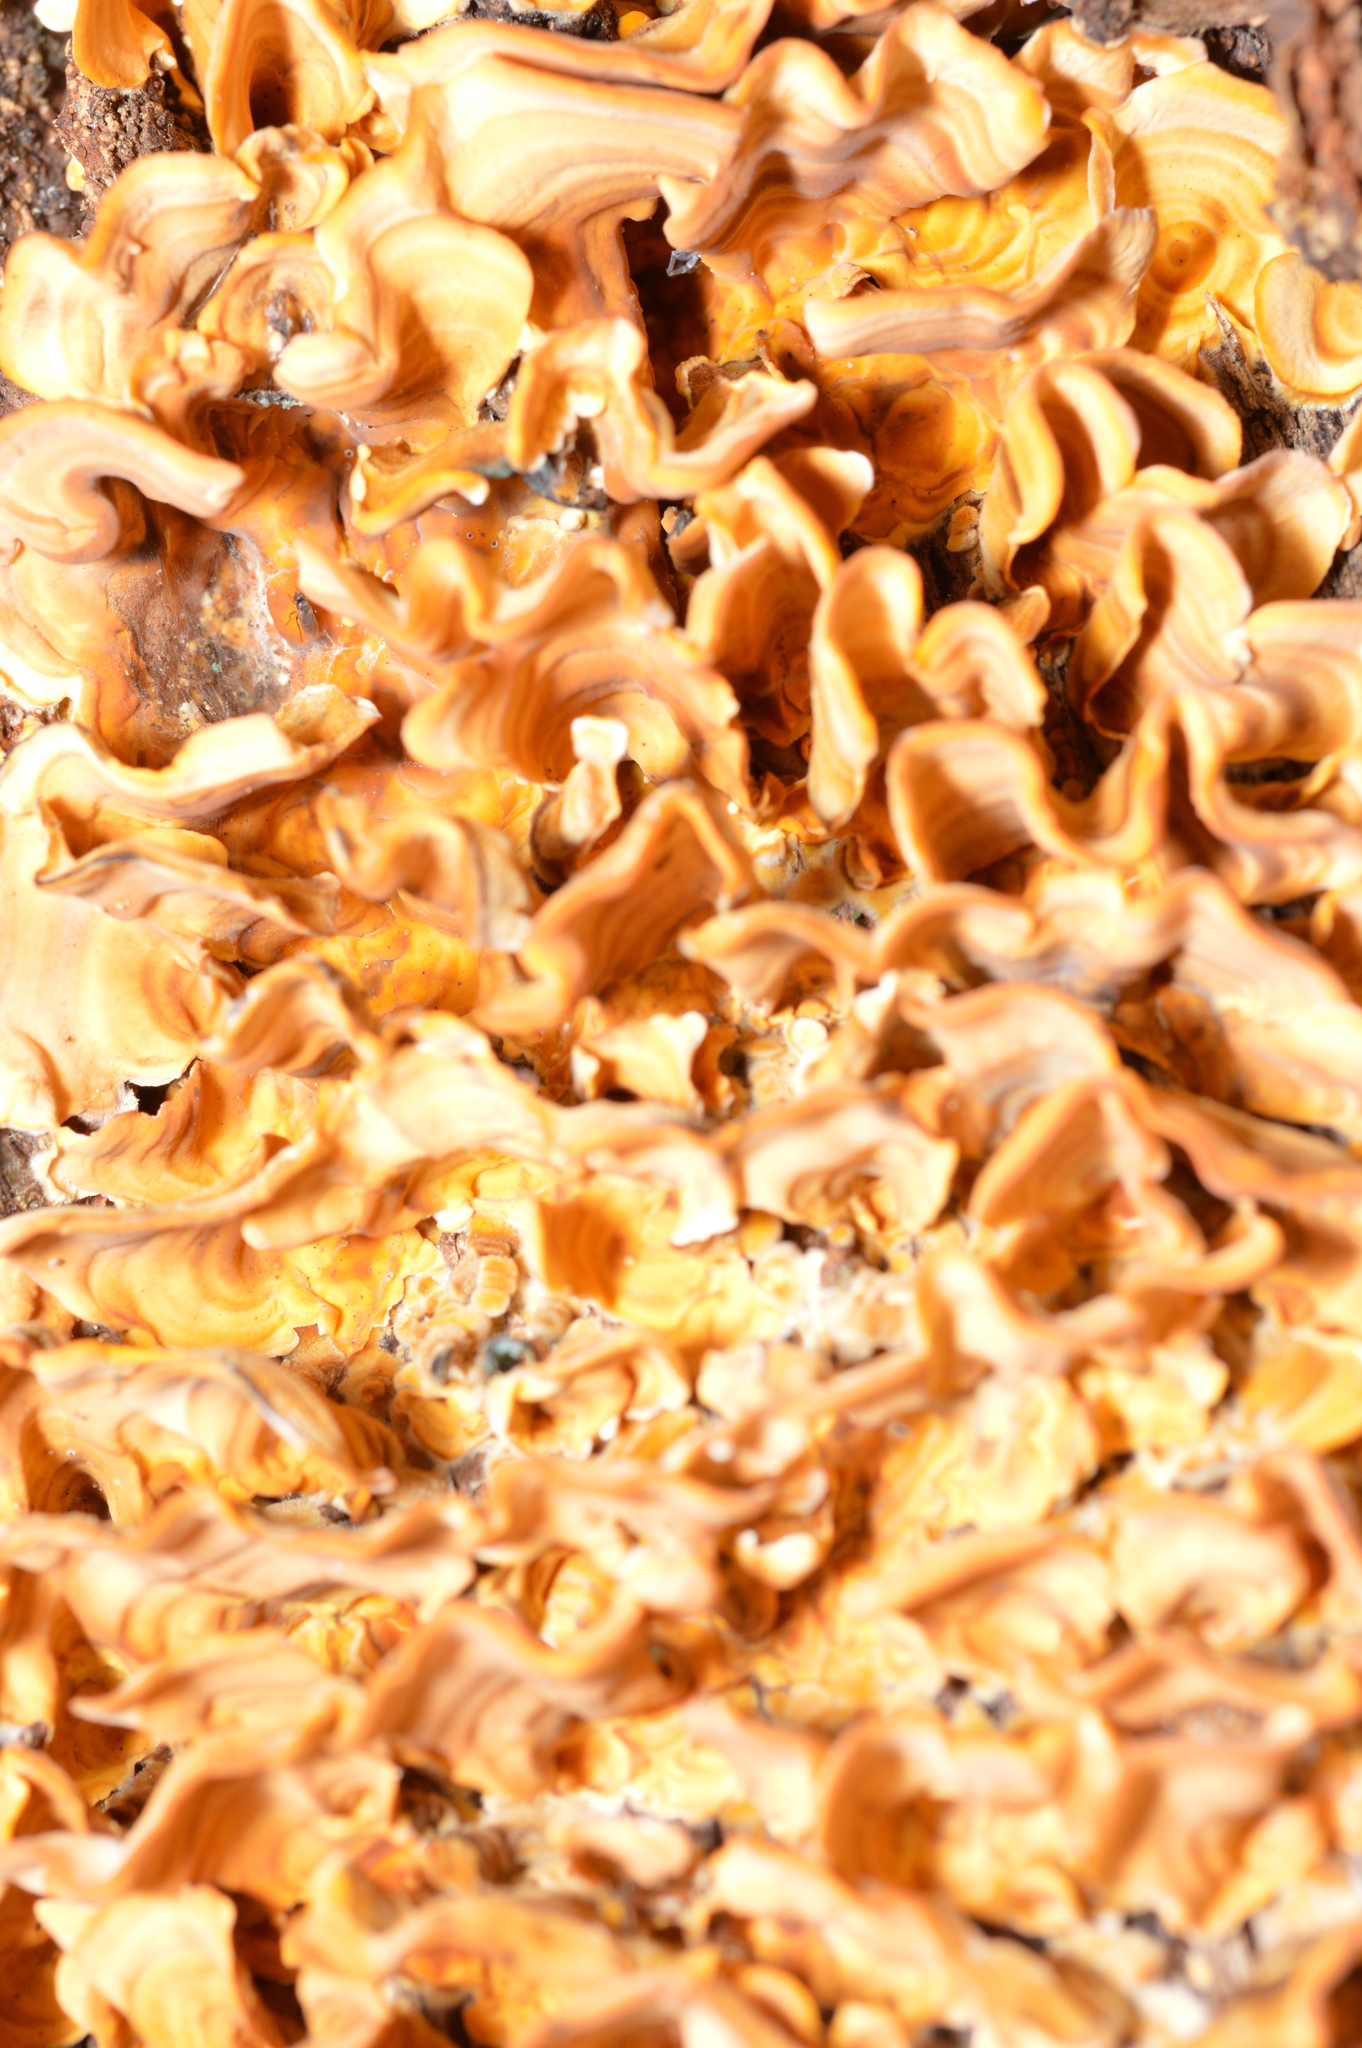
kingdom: Fungi
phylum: Basidiomycota
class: Agaricomycetes
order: Russulales
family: Stereaceae
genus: Stereum
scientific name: Stereum complicatum
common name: Crowded parchment
